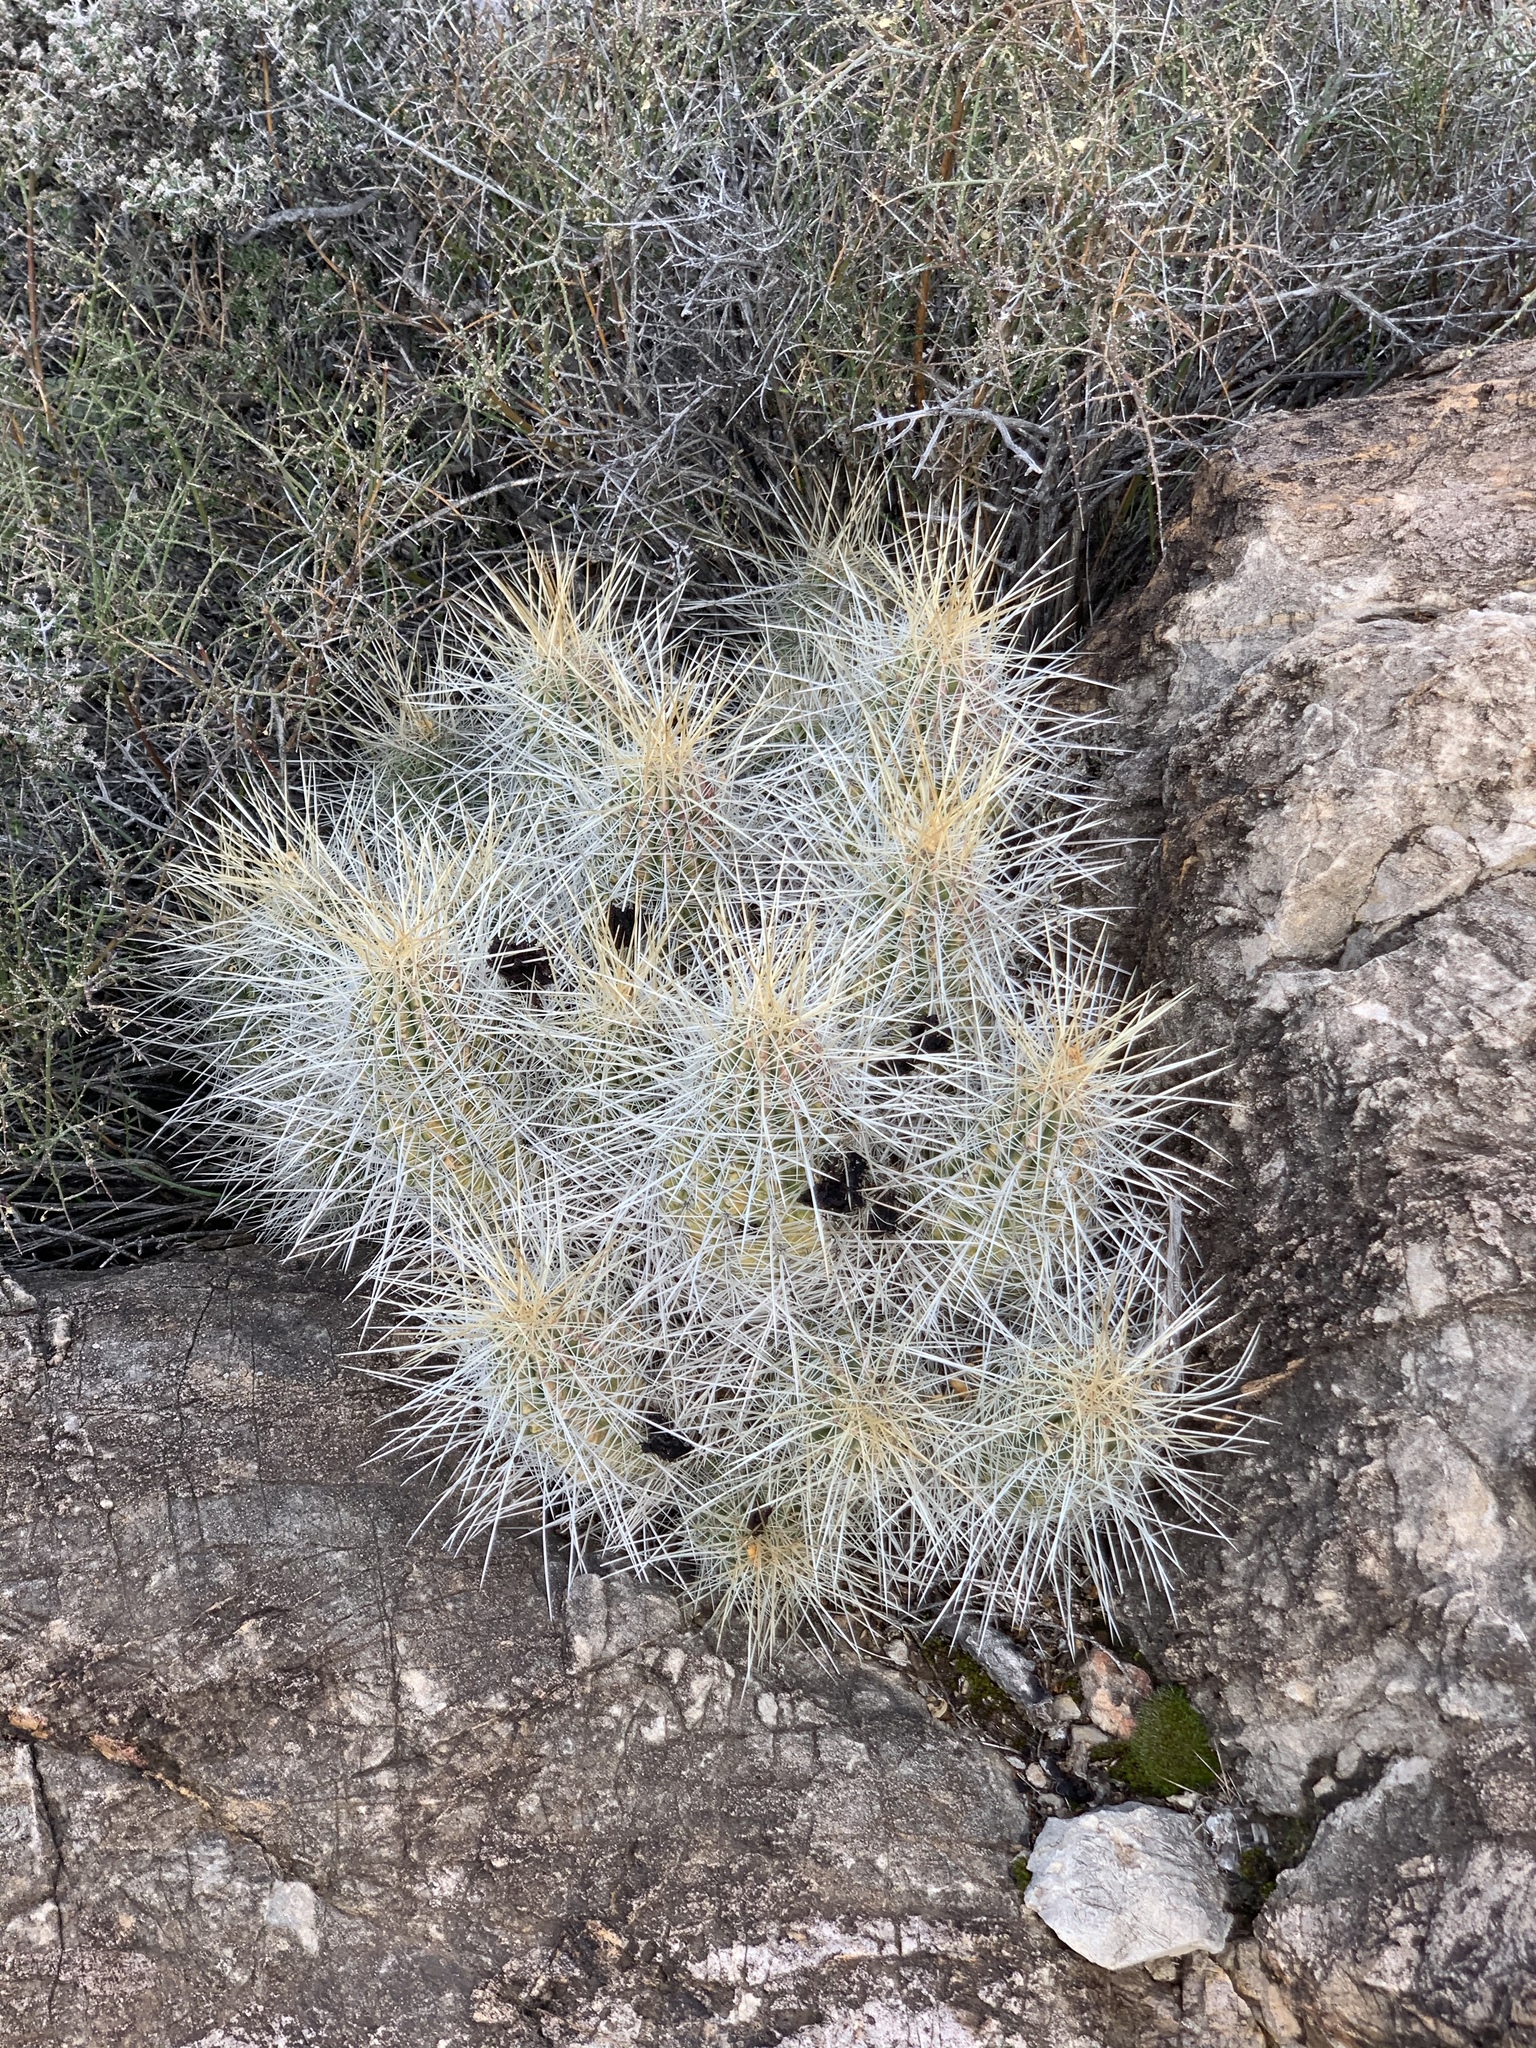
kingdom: Plantae
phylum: Tracheophyta
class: Magnoliopsida
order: Caryophyllales
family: Cactaceae
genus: Echinocereus
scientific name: Echinocereus stramineus
